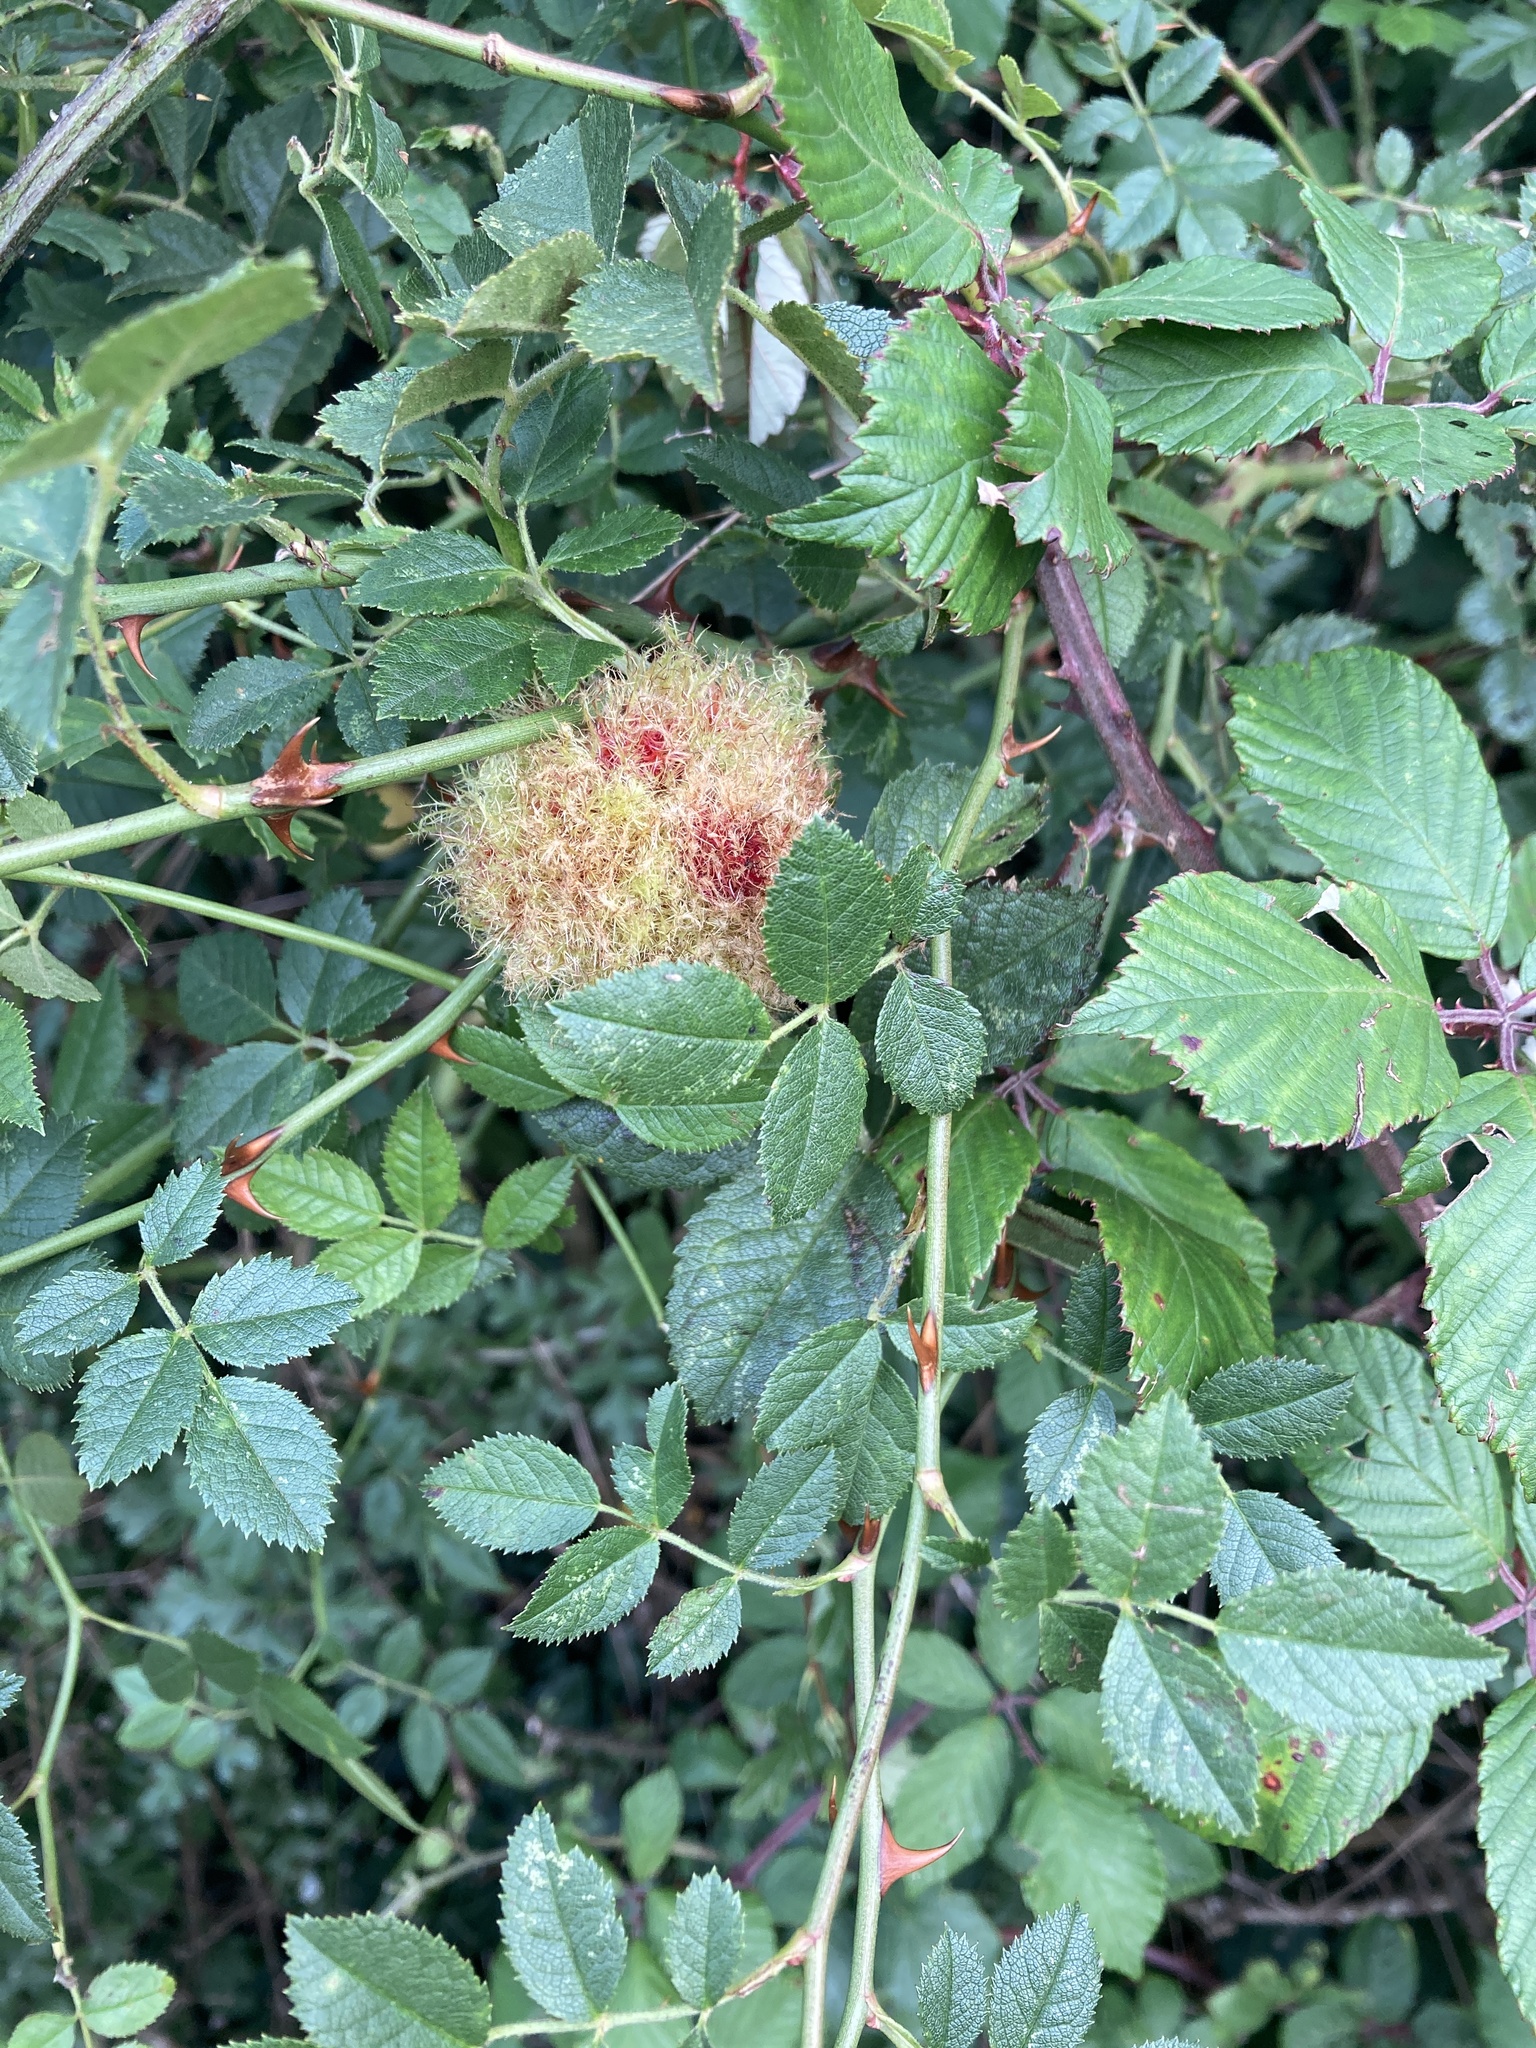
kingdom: Animalia
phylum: Arthropoda
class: Insecta
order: Hymenoptera
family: Cynipidae
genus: Diplolepis
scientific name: Diplolepis rosae
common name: Bedeguar gall
